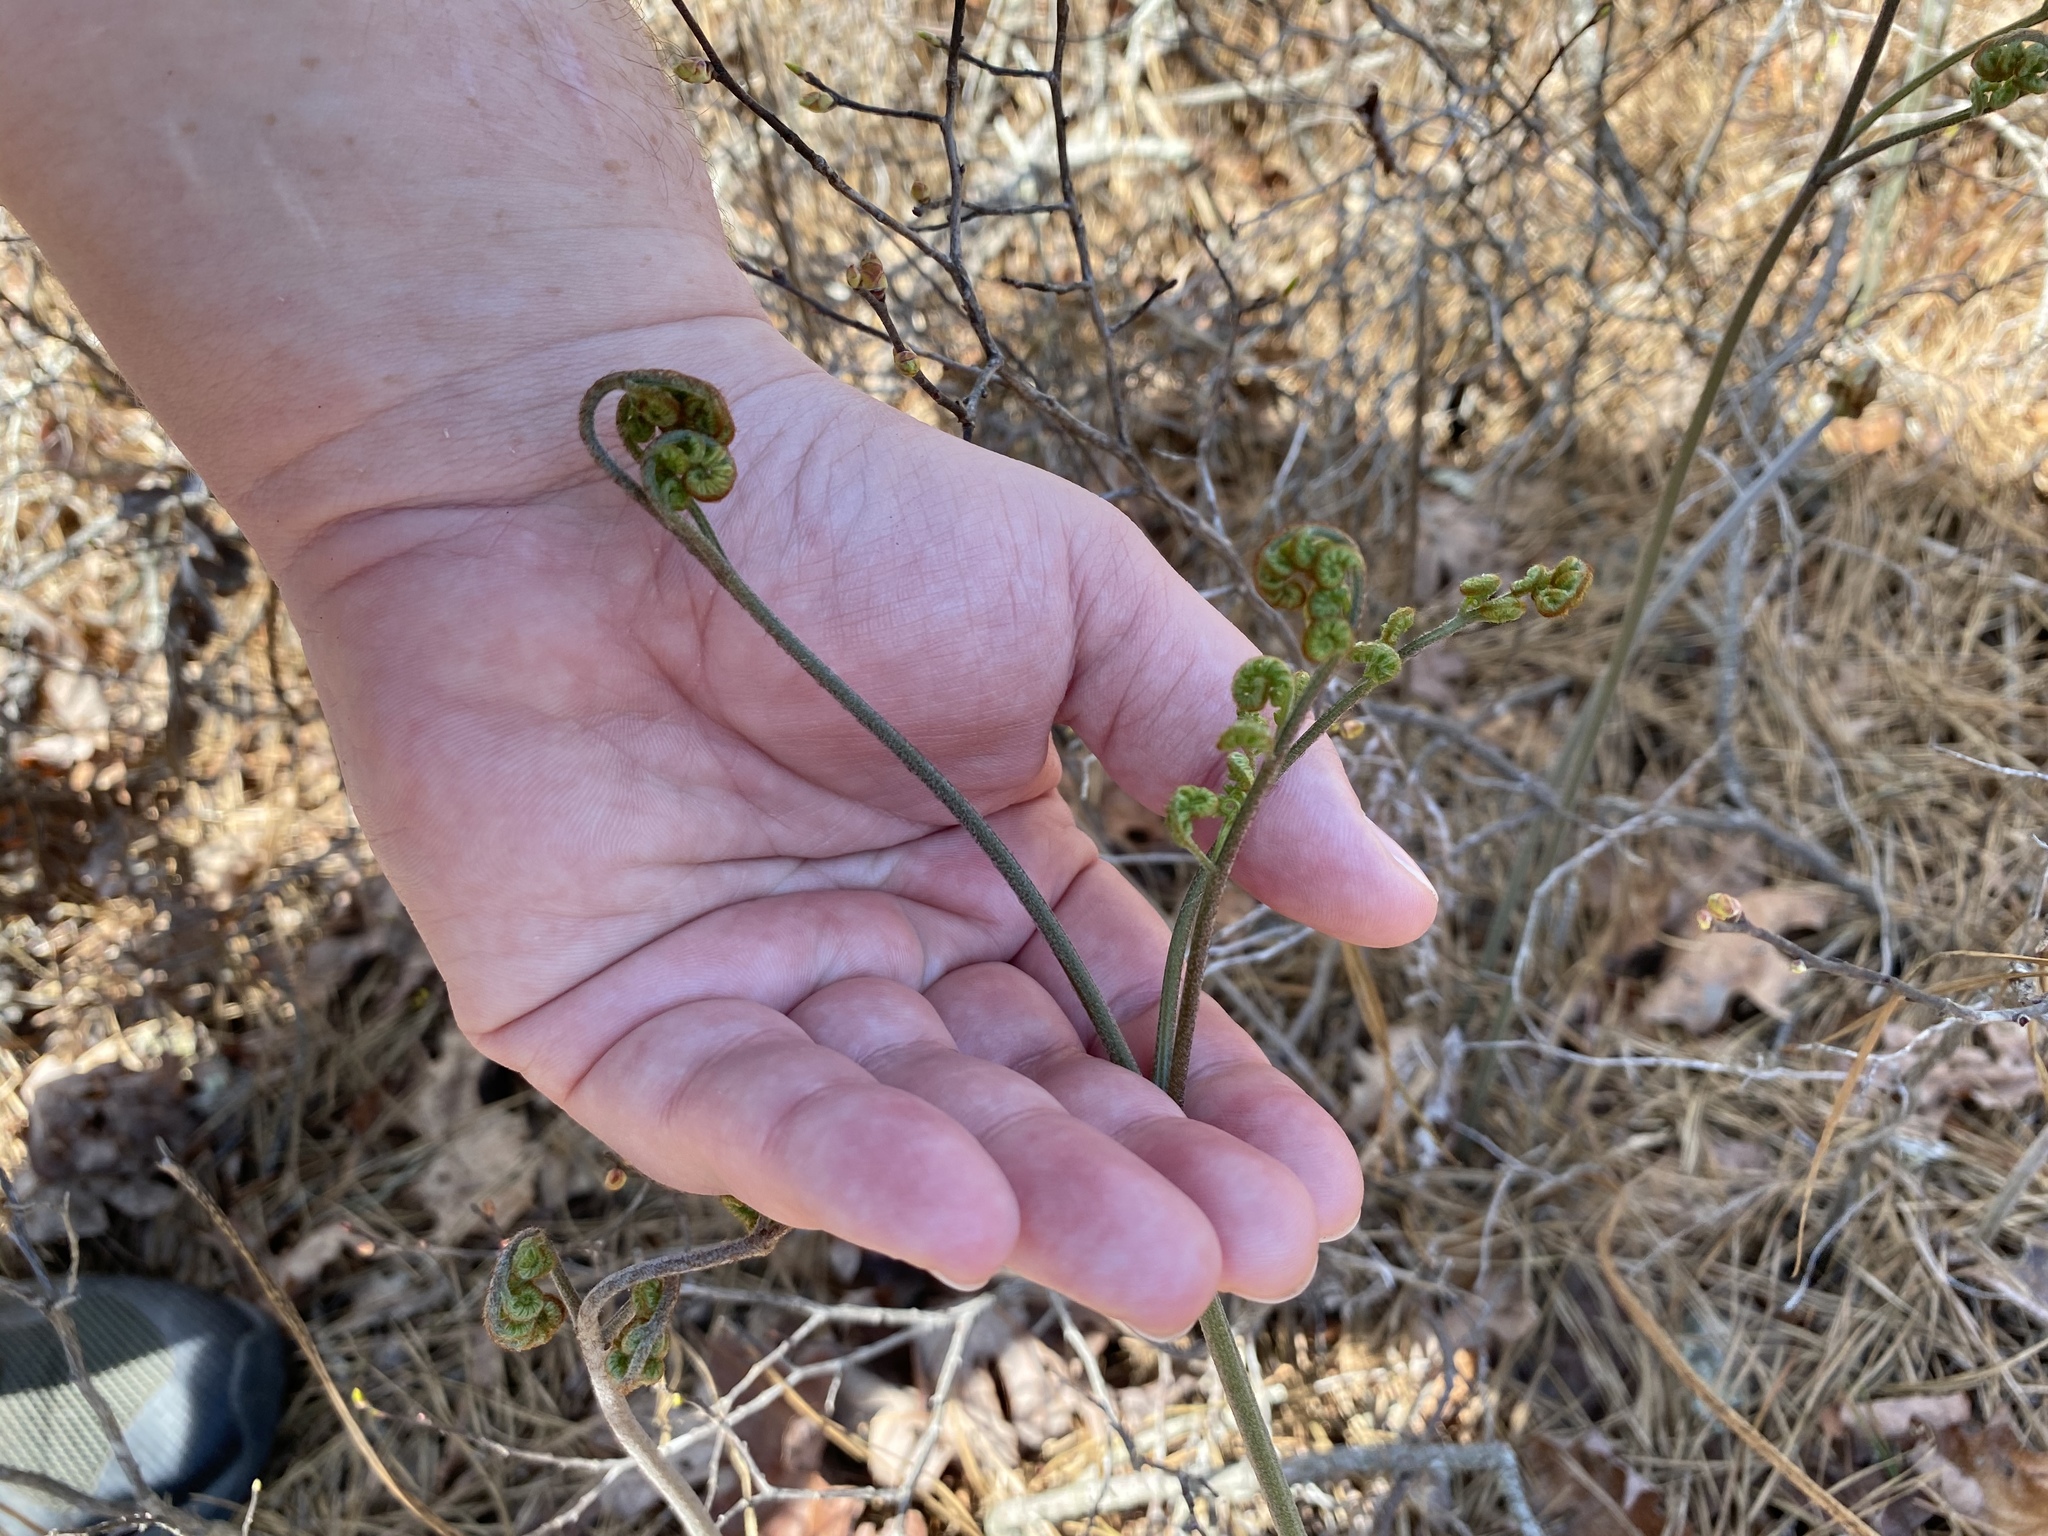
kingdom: Plantae
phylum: Tracheophyta
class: Polypodiopsida
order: Polypodiales
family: Dennstaedtiaceae
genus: Pteridium
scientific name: Pteridium aquilinum
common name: Bracken
